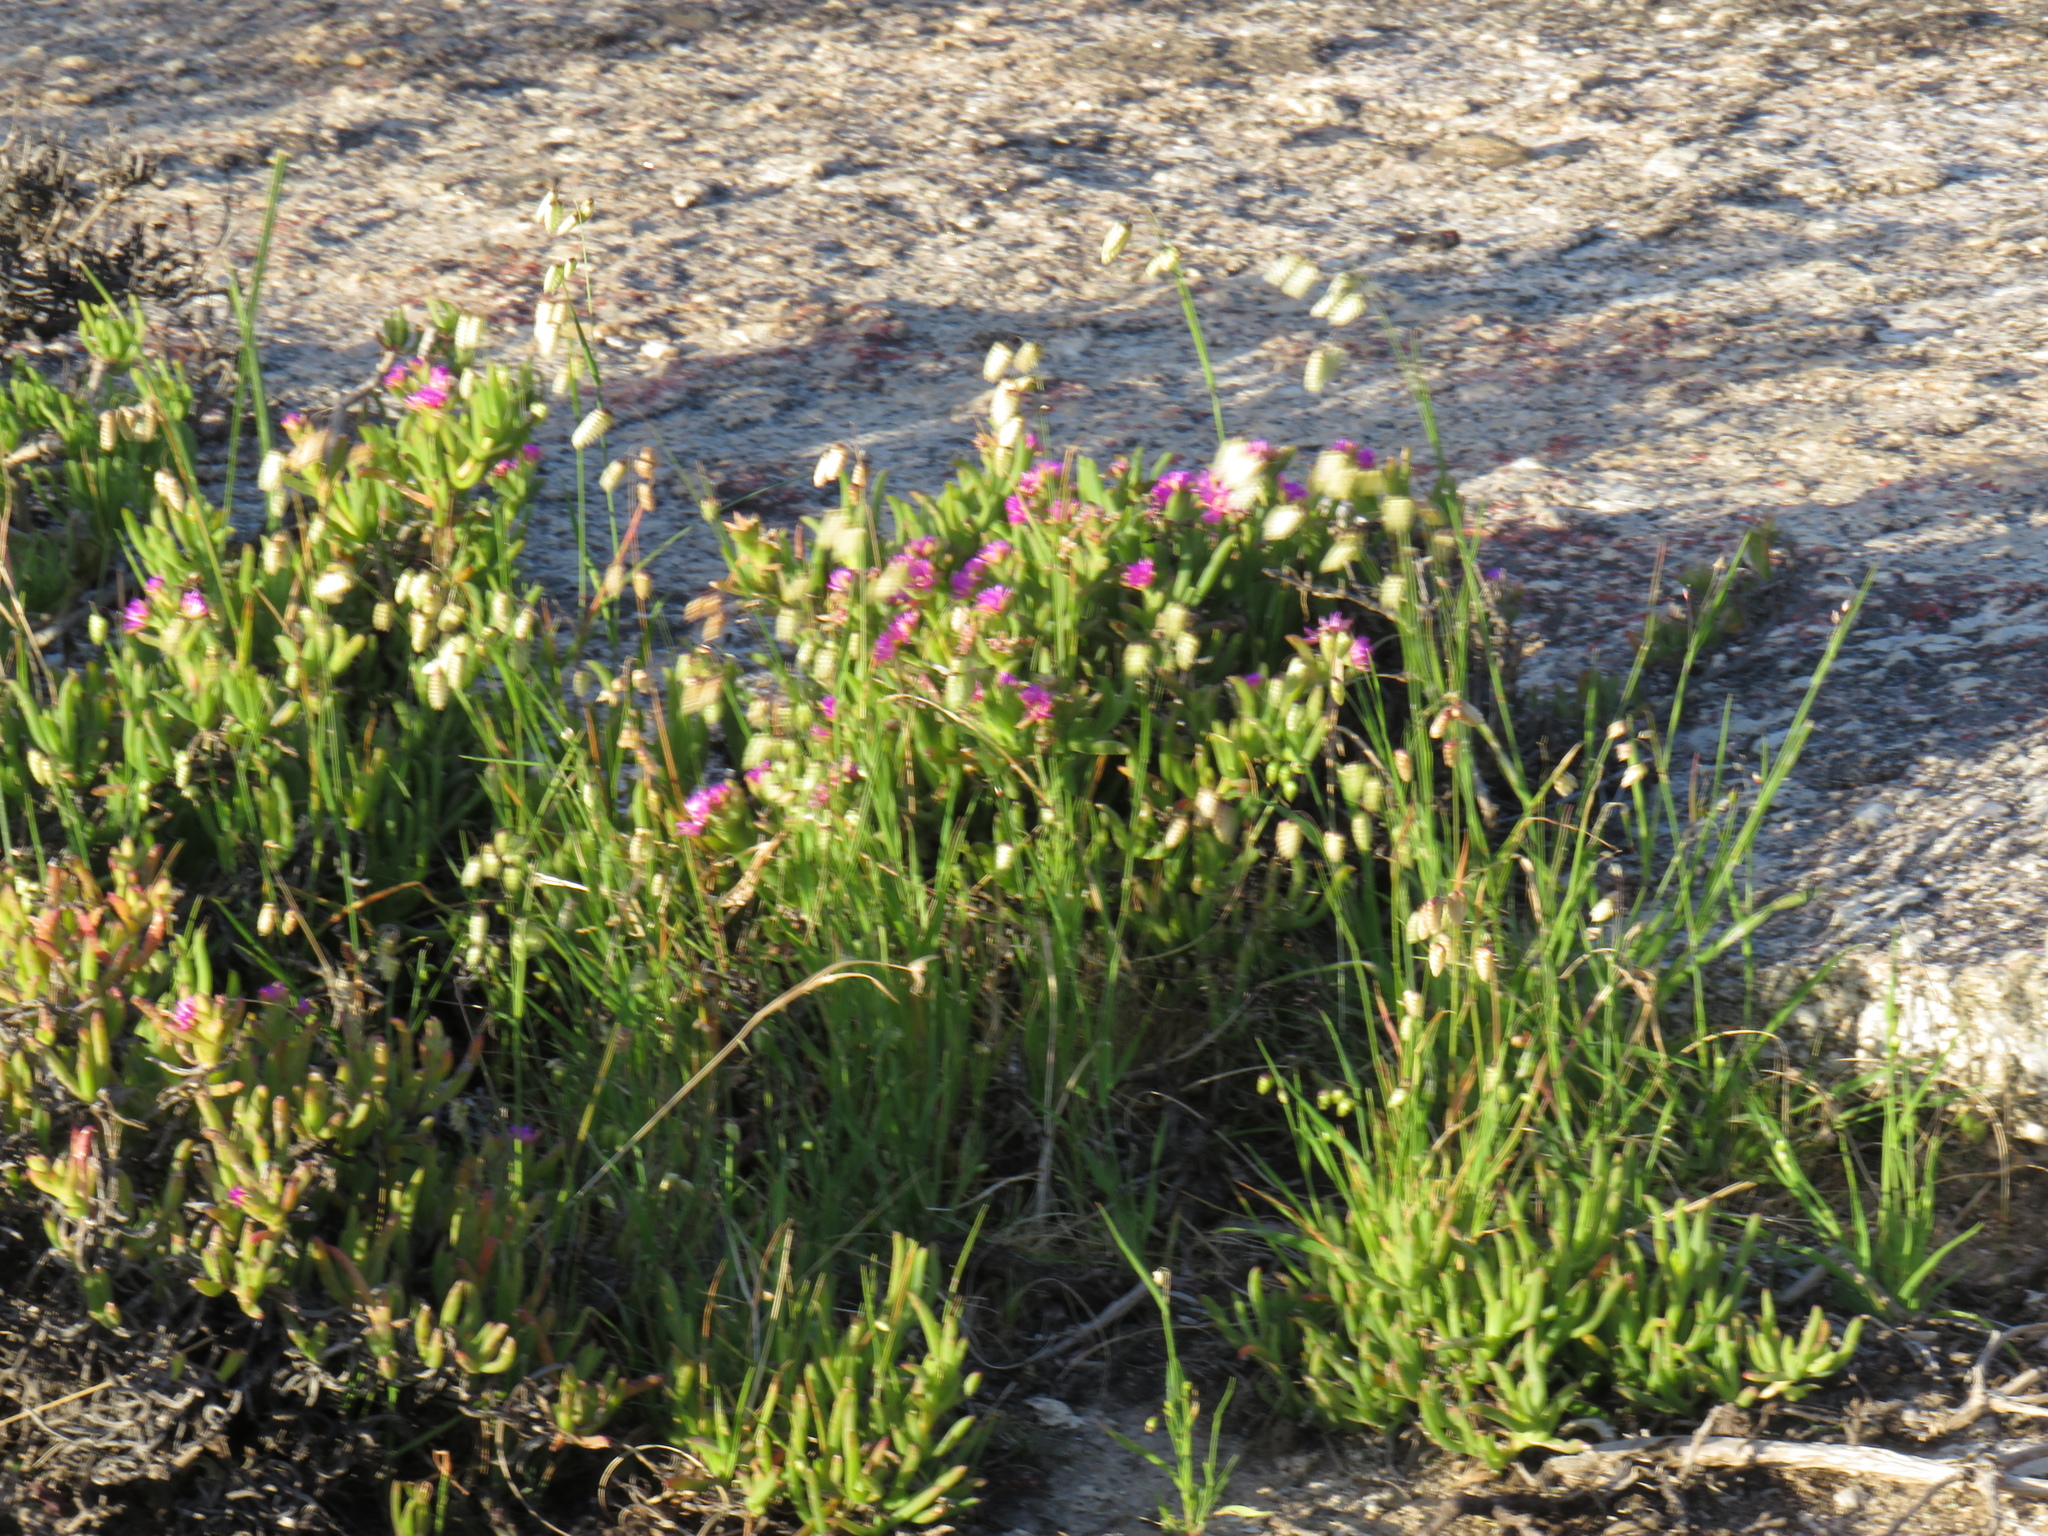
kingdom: Plantae
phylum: Tracheophyta
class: Liliopsida
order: Poales
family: Poaceae
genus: Briza
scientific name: Briza maxima
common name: Big quakinggrass
